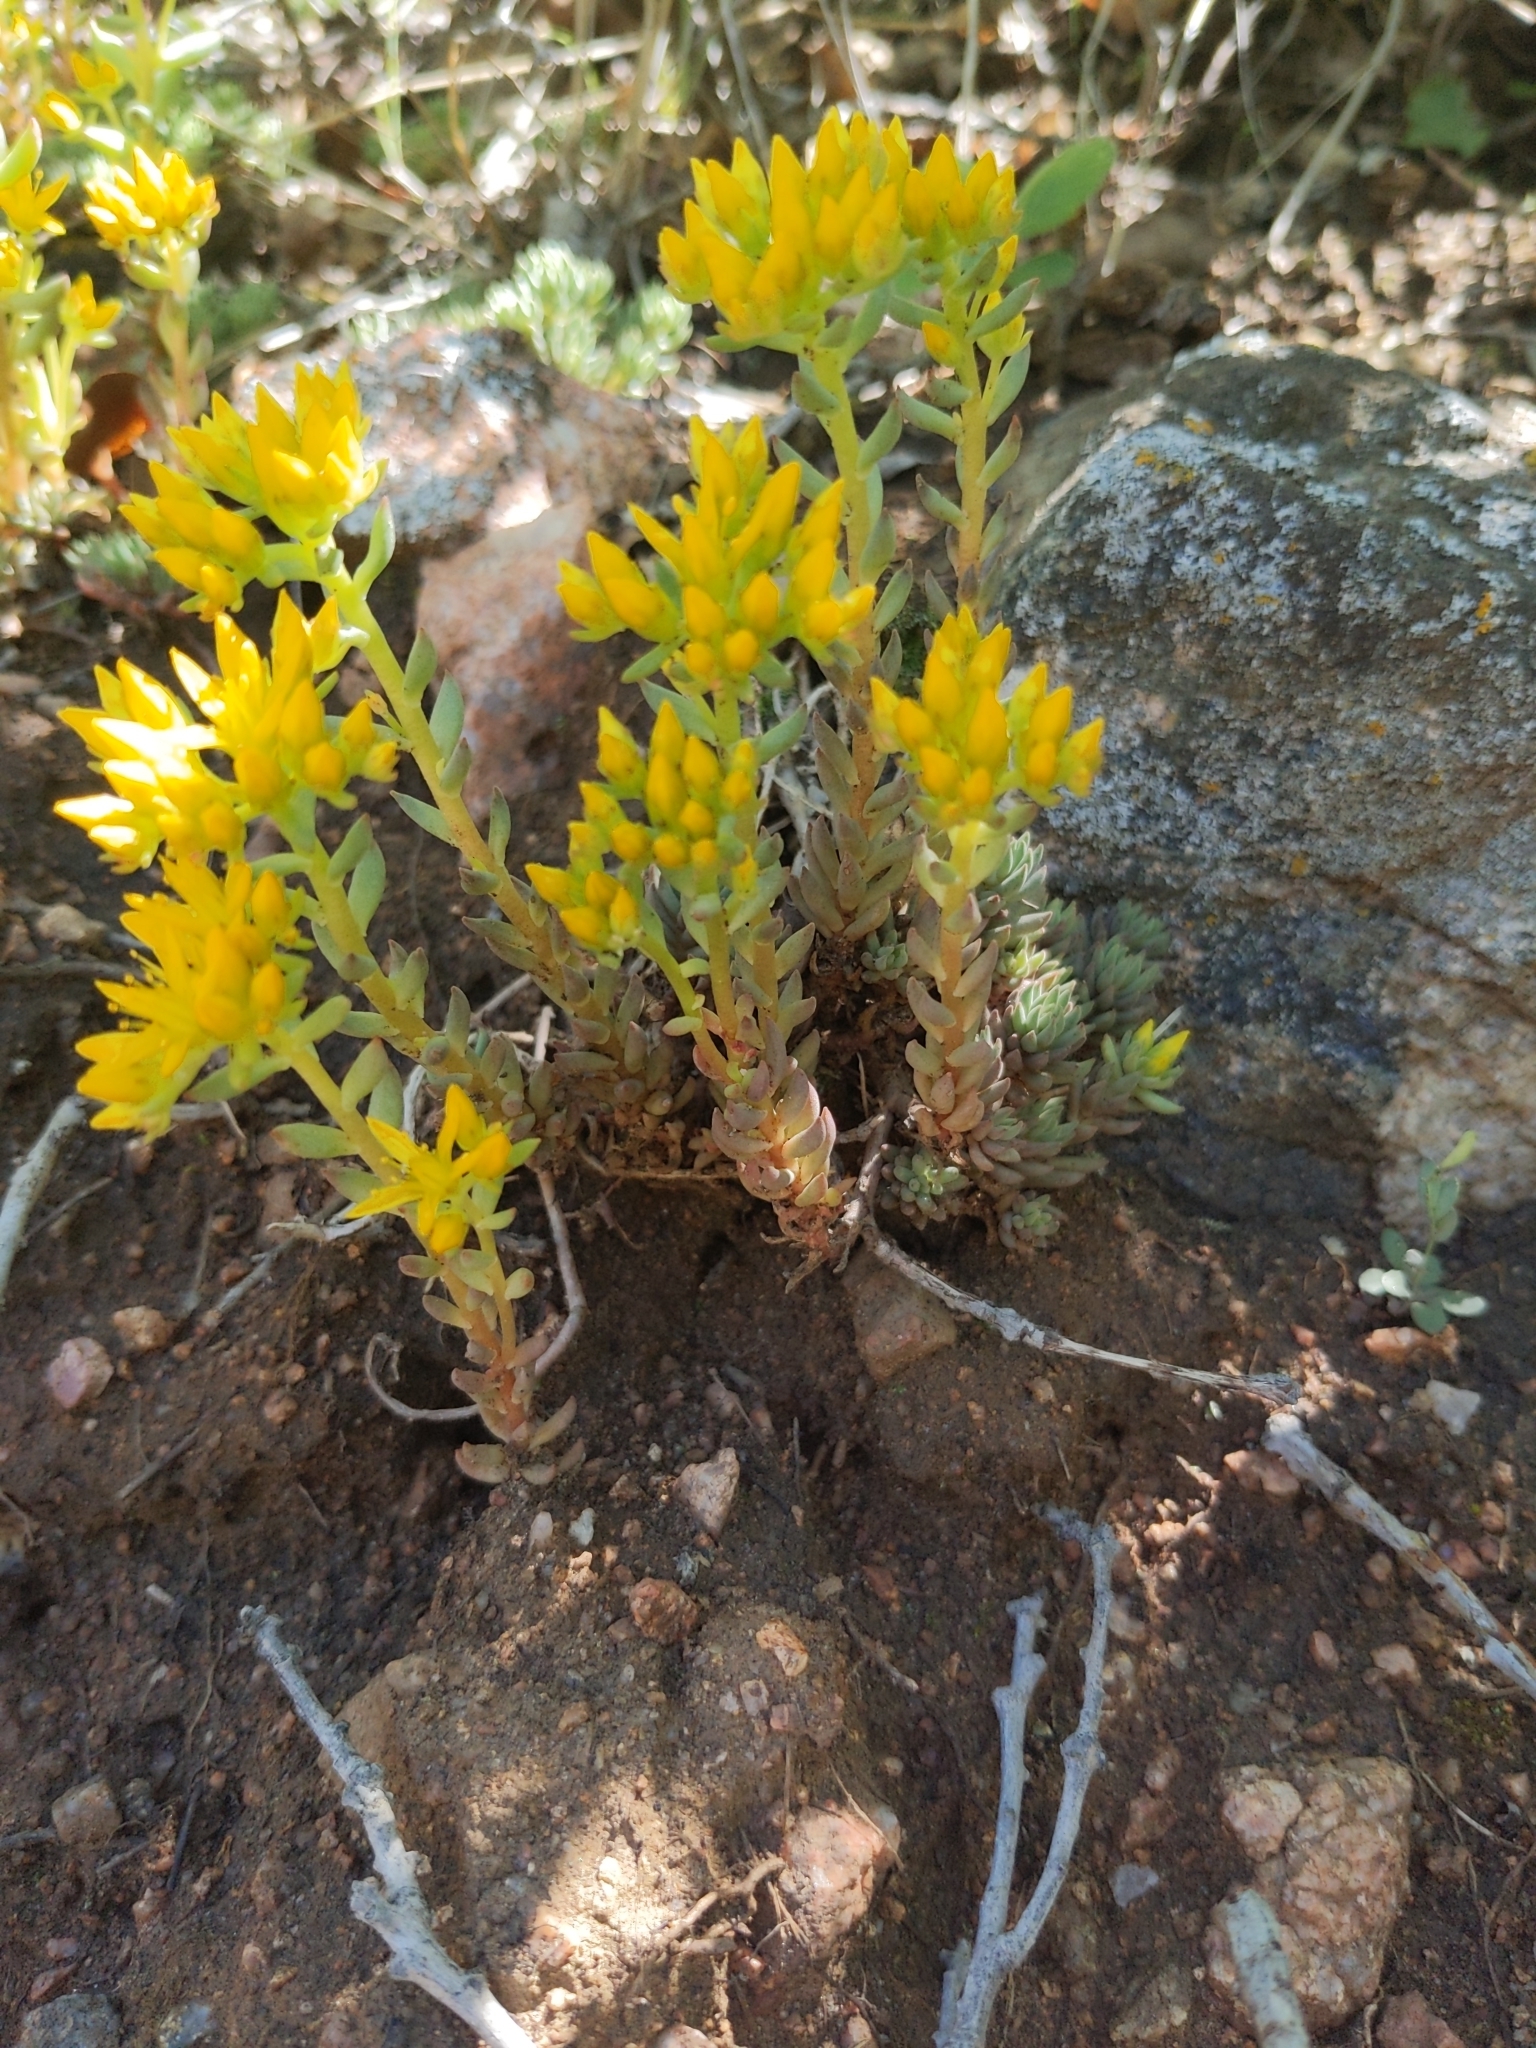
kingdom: Plantae
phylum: Tracheophyta
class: Magnoliopsida
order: Saxifragales
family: Crassulaceae
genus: Sedum
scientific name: Sedum lanceolatum
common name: Common stonecrop
